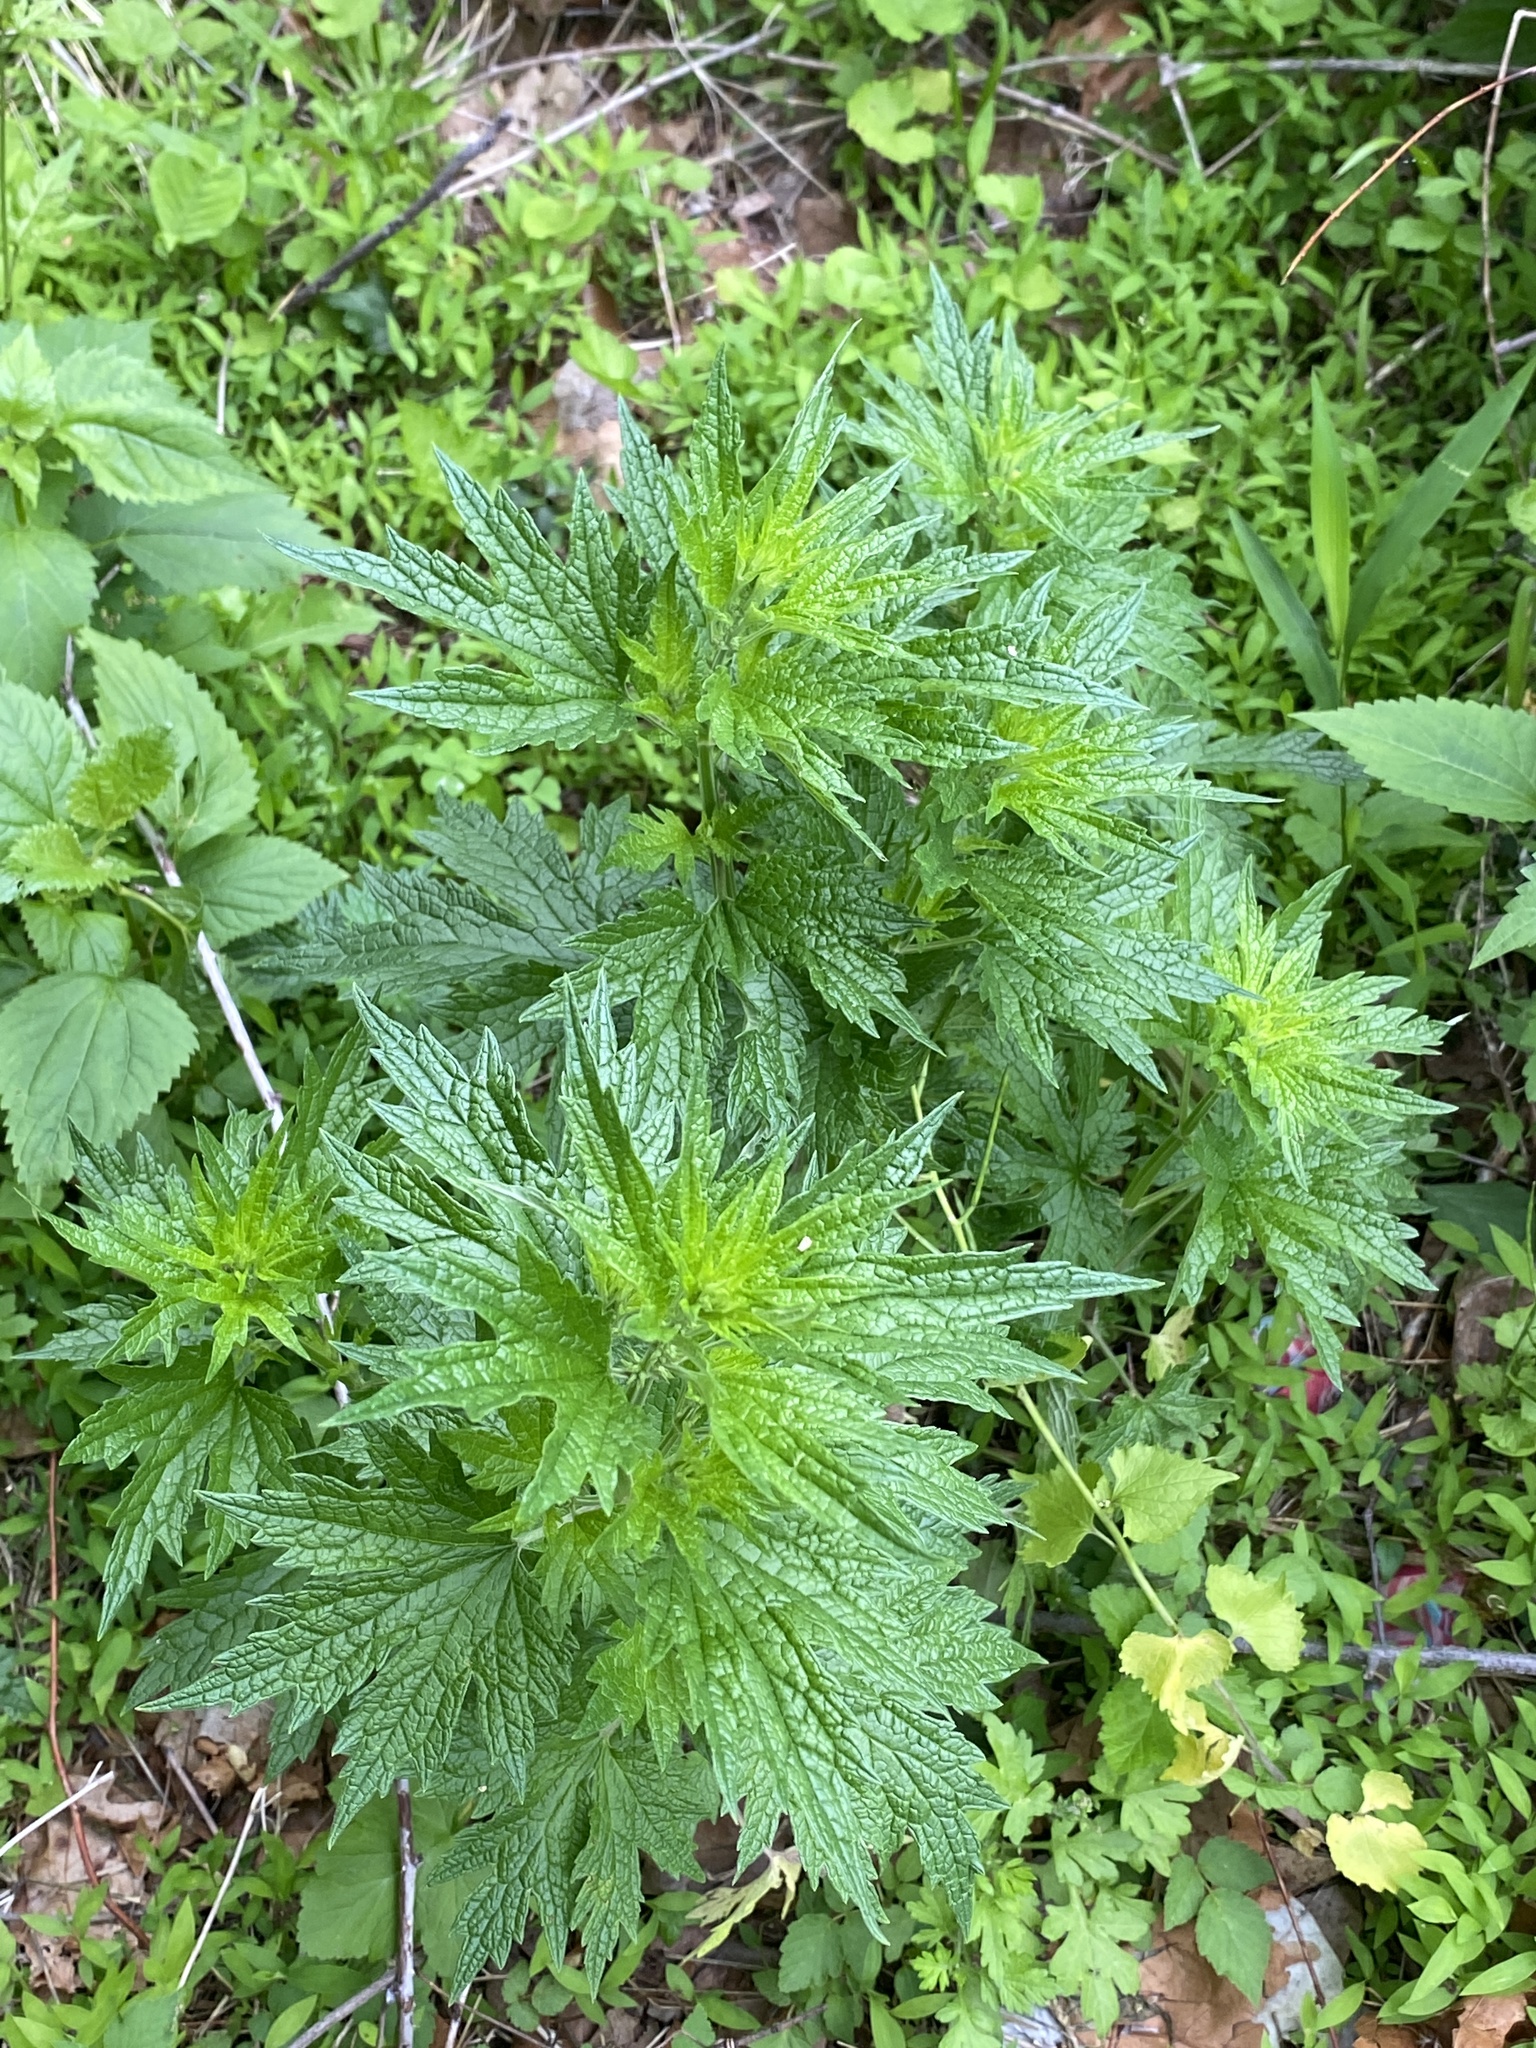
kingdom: Plantae
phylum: Tracheophyta
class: Magnoliopsida
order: Lamiales
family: Lamiaceae
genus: Leonurus
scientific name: Leonurus cardiaca
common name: Motherwort
